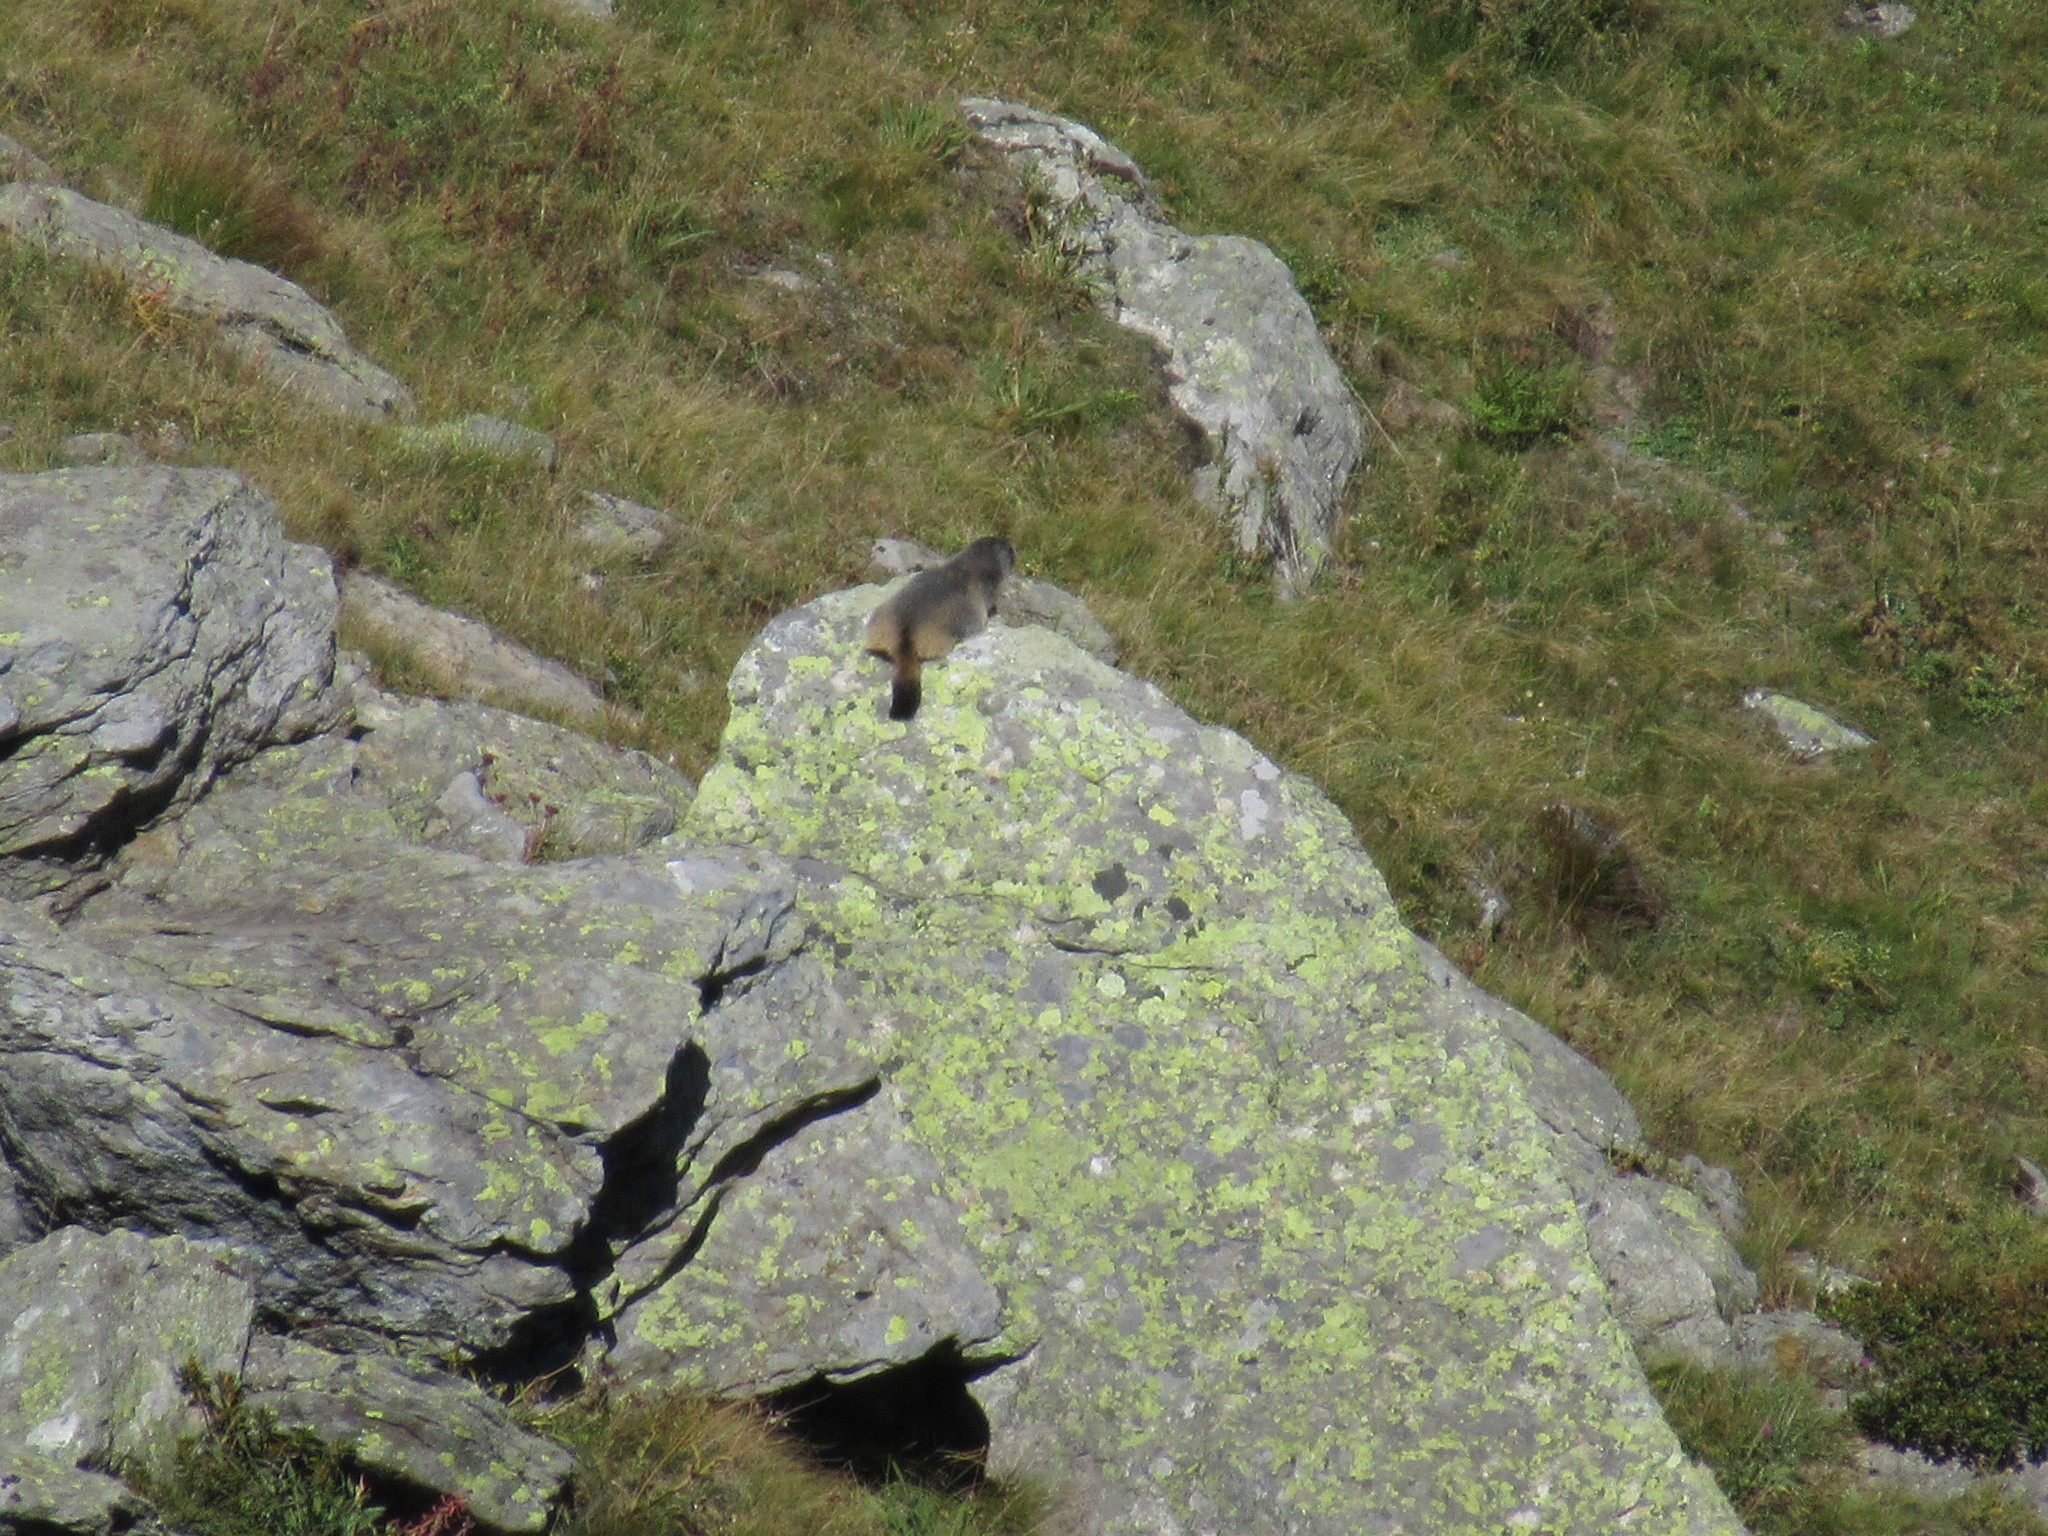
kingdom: Animalia
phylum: Chordata
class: Mammalia
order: Rodentia
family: Sciuridae
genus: Marmota
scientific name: Marmota marmota
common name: Alpine marmot
